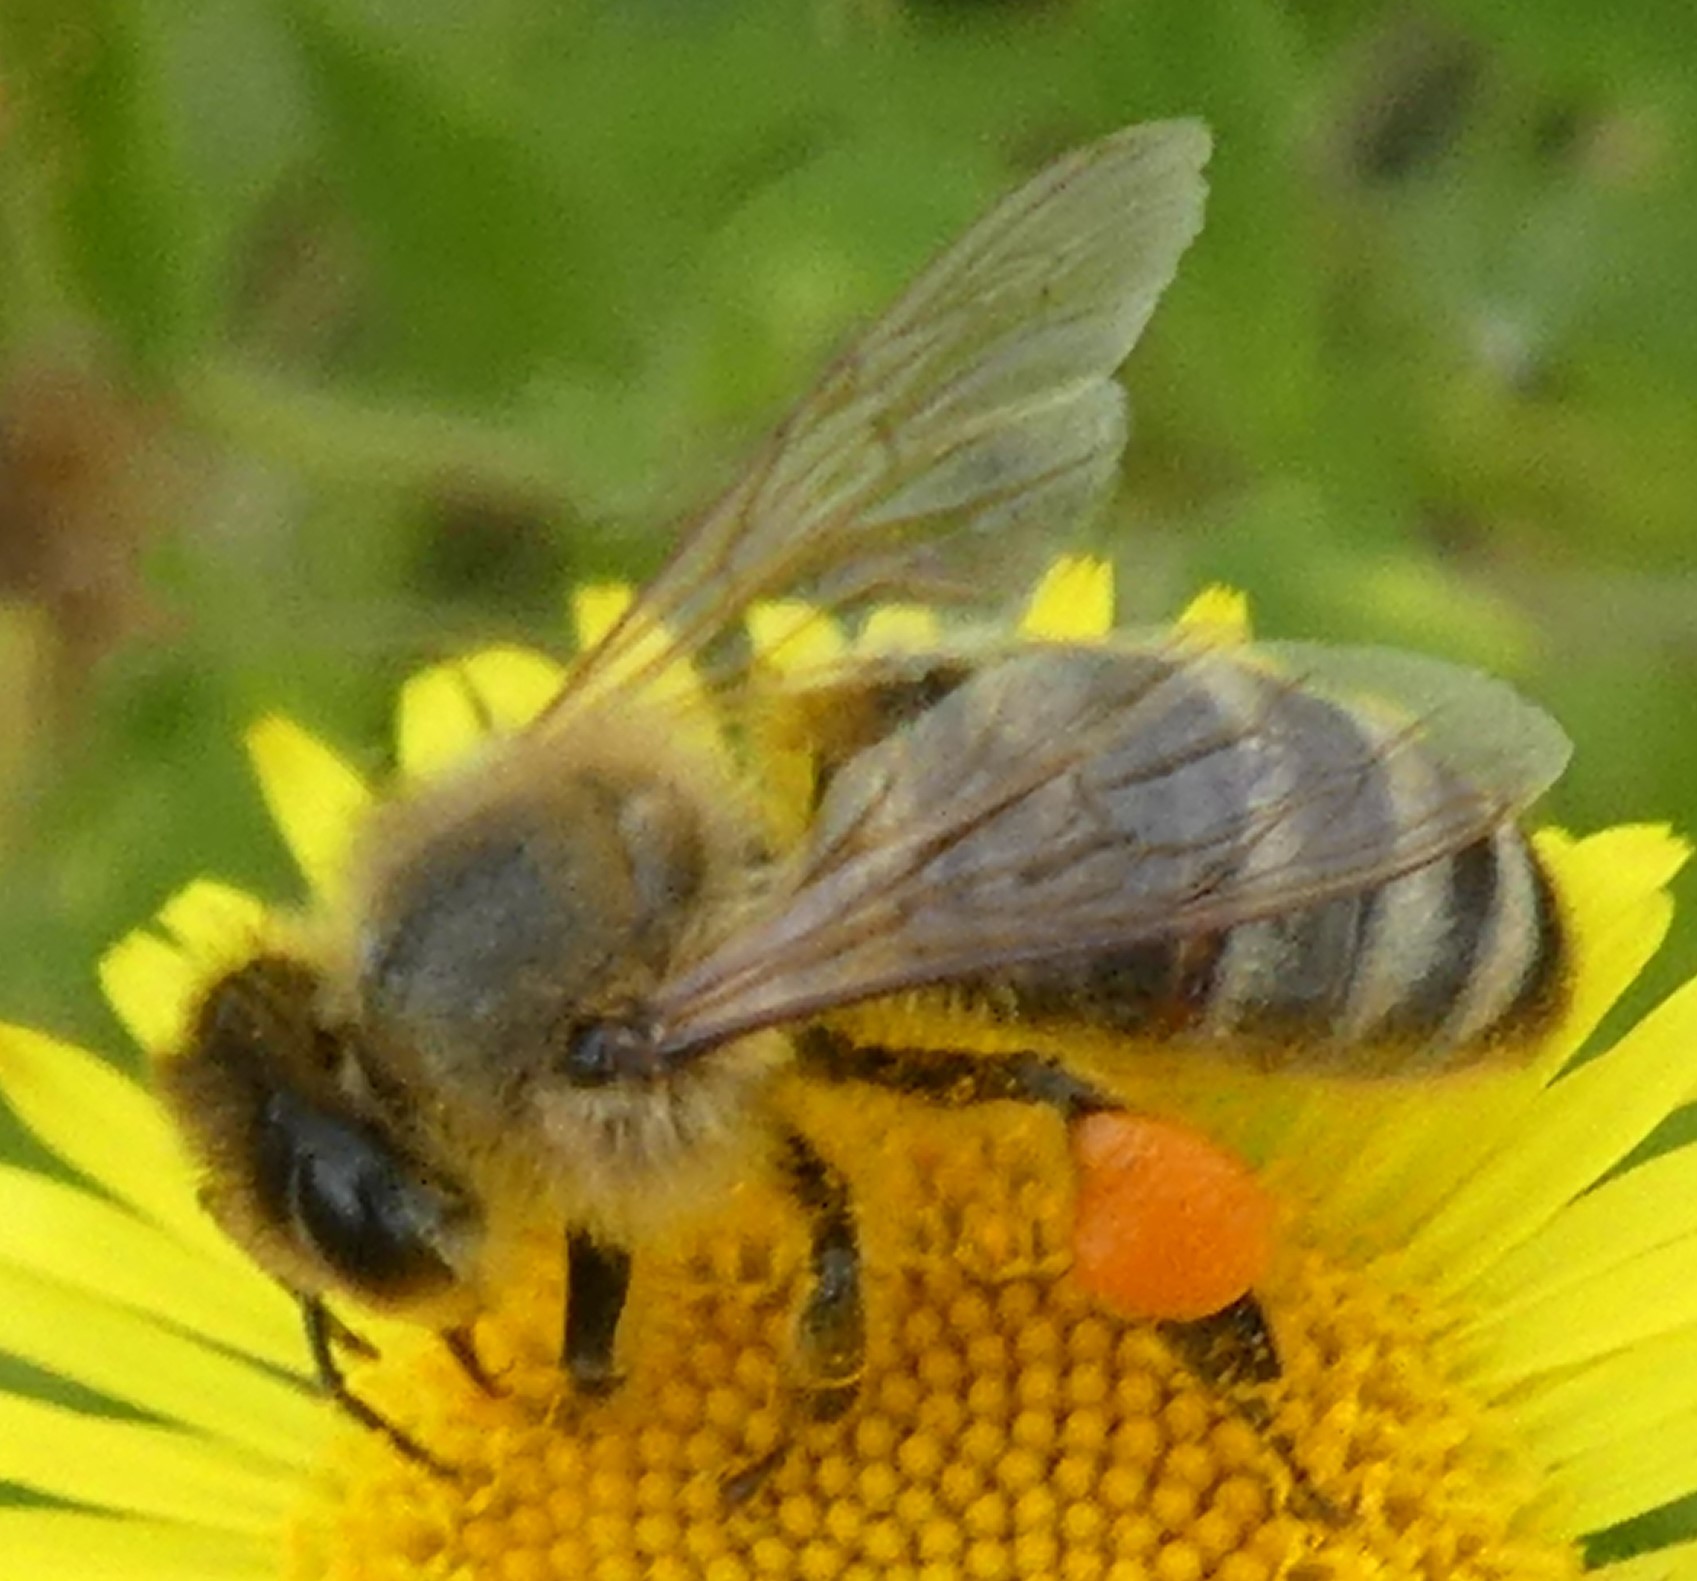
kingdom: Animalia
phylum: Arthropoda
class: Insecta
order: Hymenoptera
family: Apidae
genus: Apis
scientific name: Apis mellifera
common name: Honey bee
